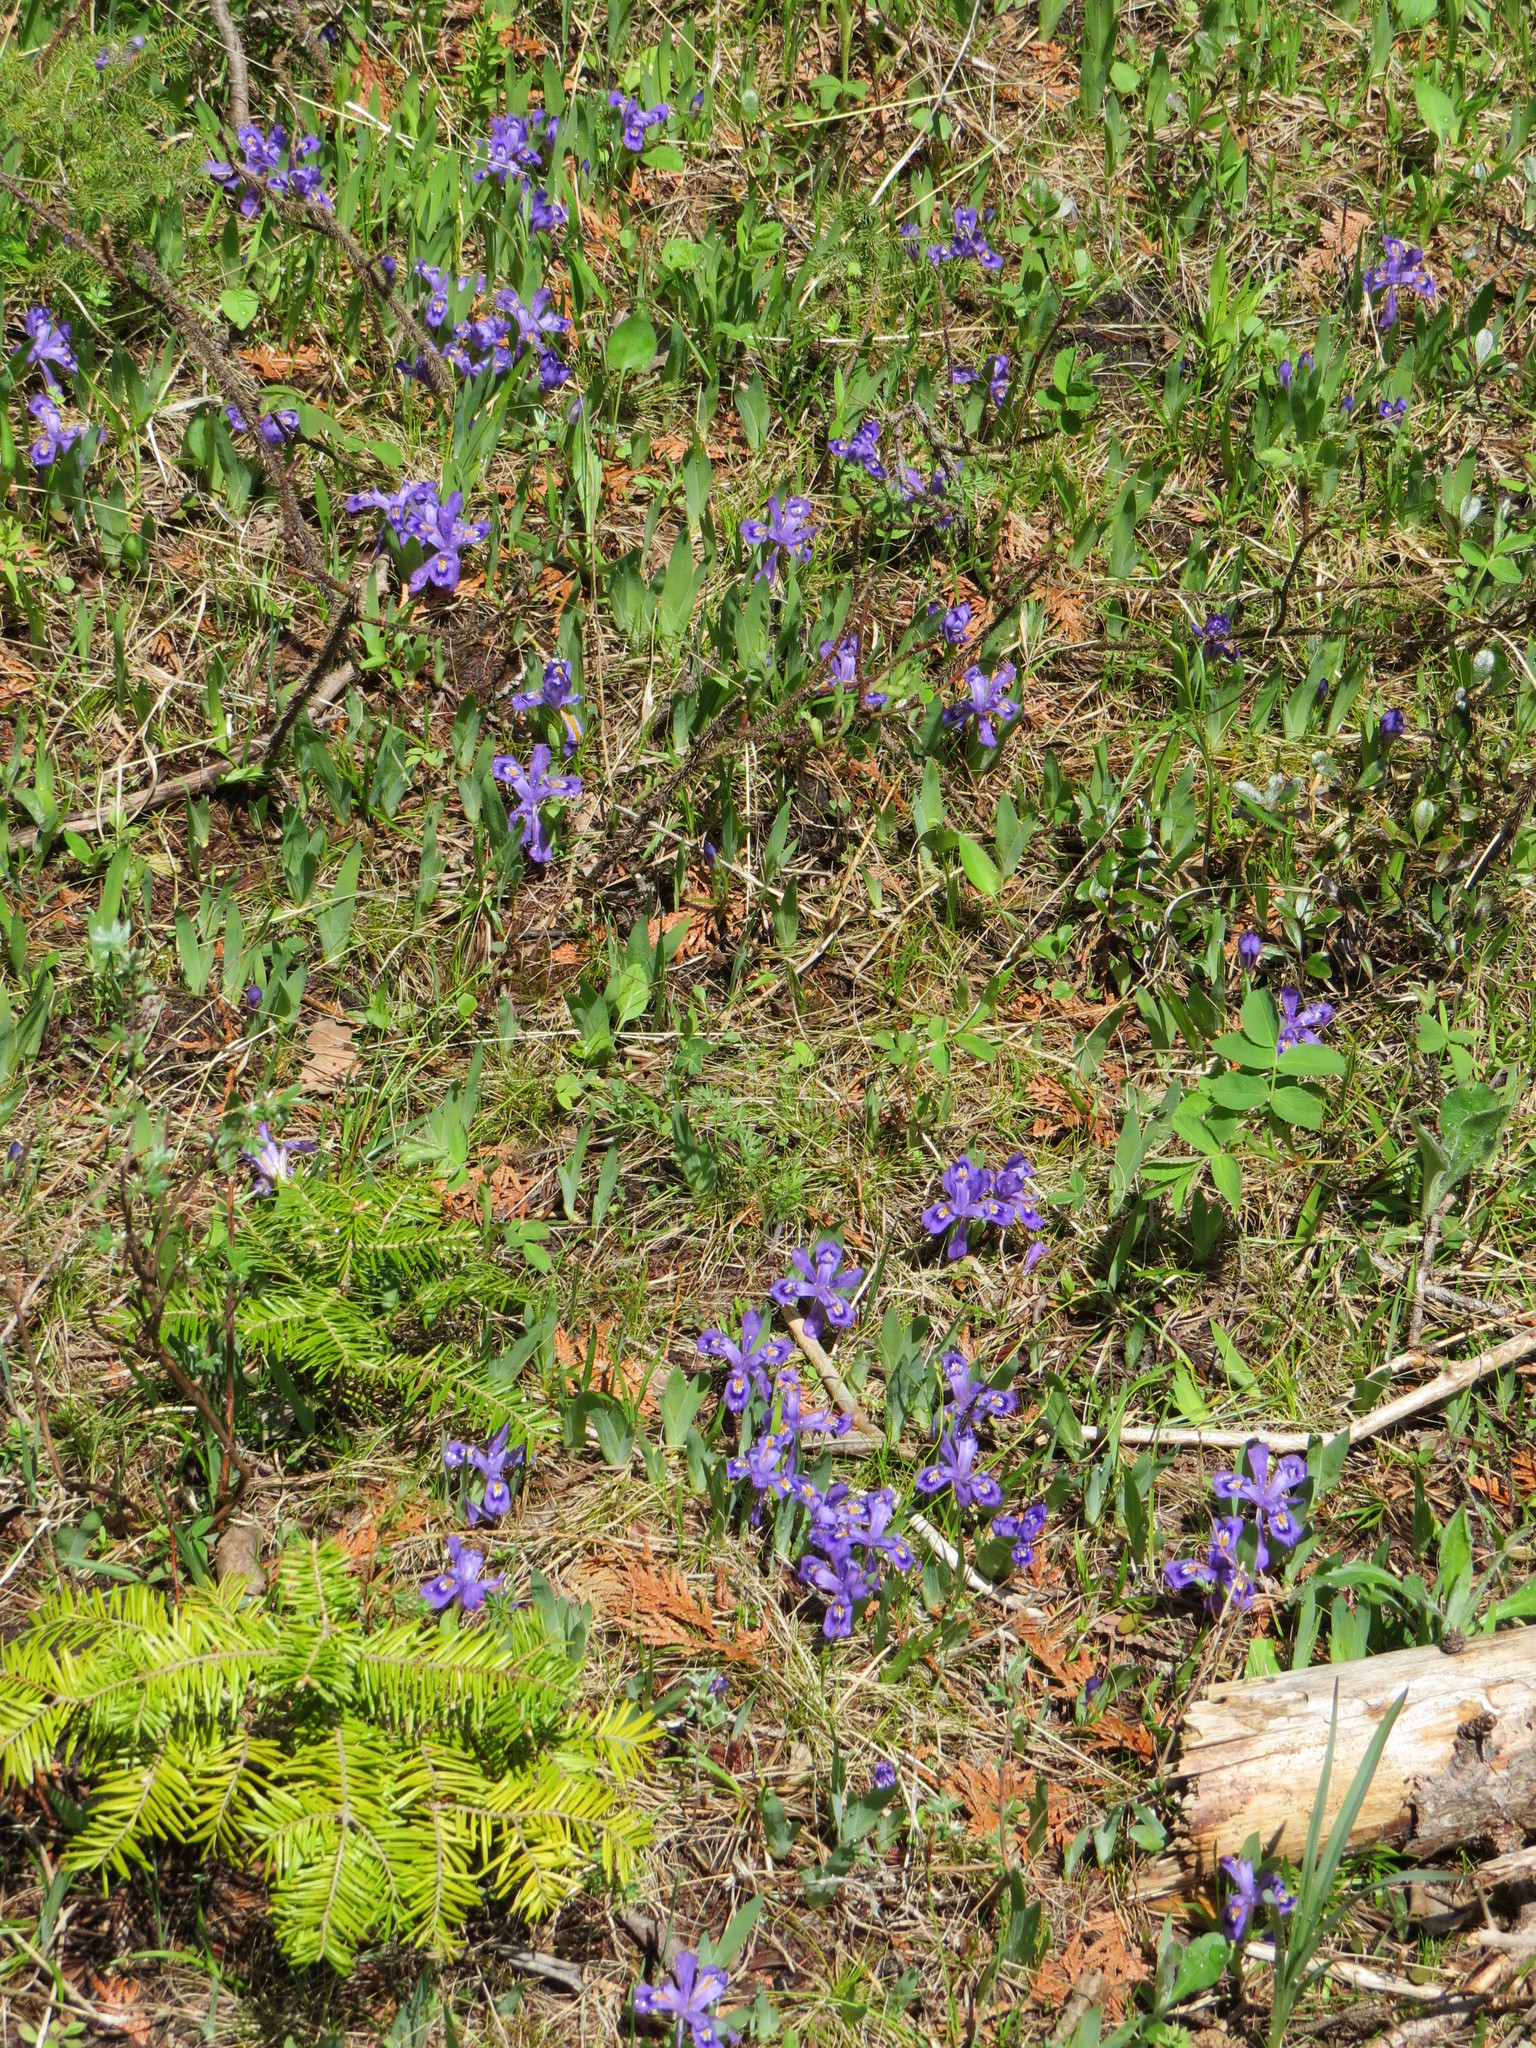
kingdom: Plantae
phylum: Tracheophyta
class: Liliopsida
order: Asparagales
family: Iridaceae
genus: Iris
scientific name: Iris lacustris
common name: Dwarf lake iris
